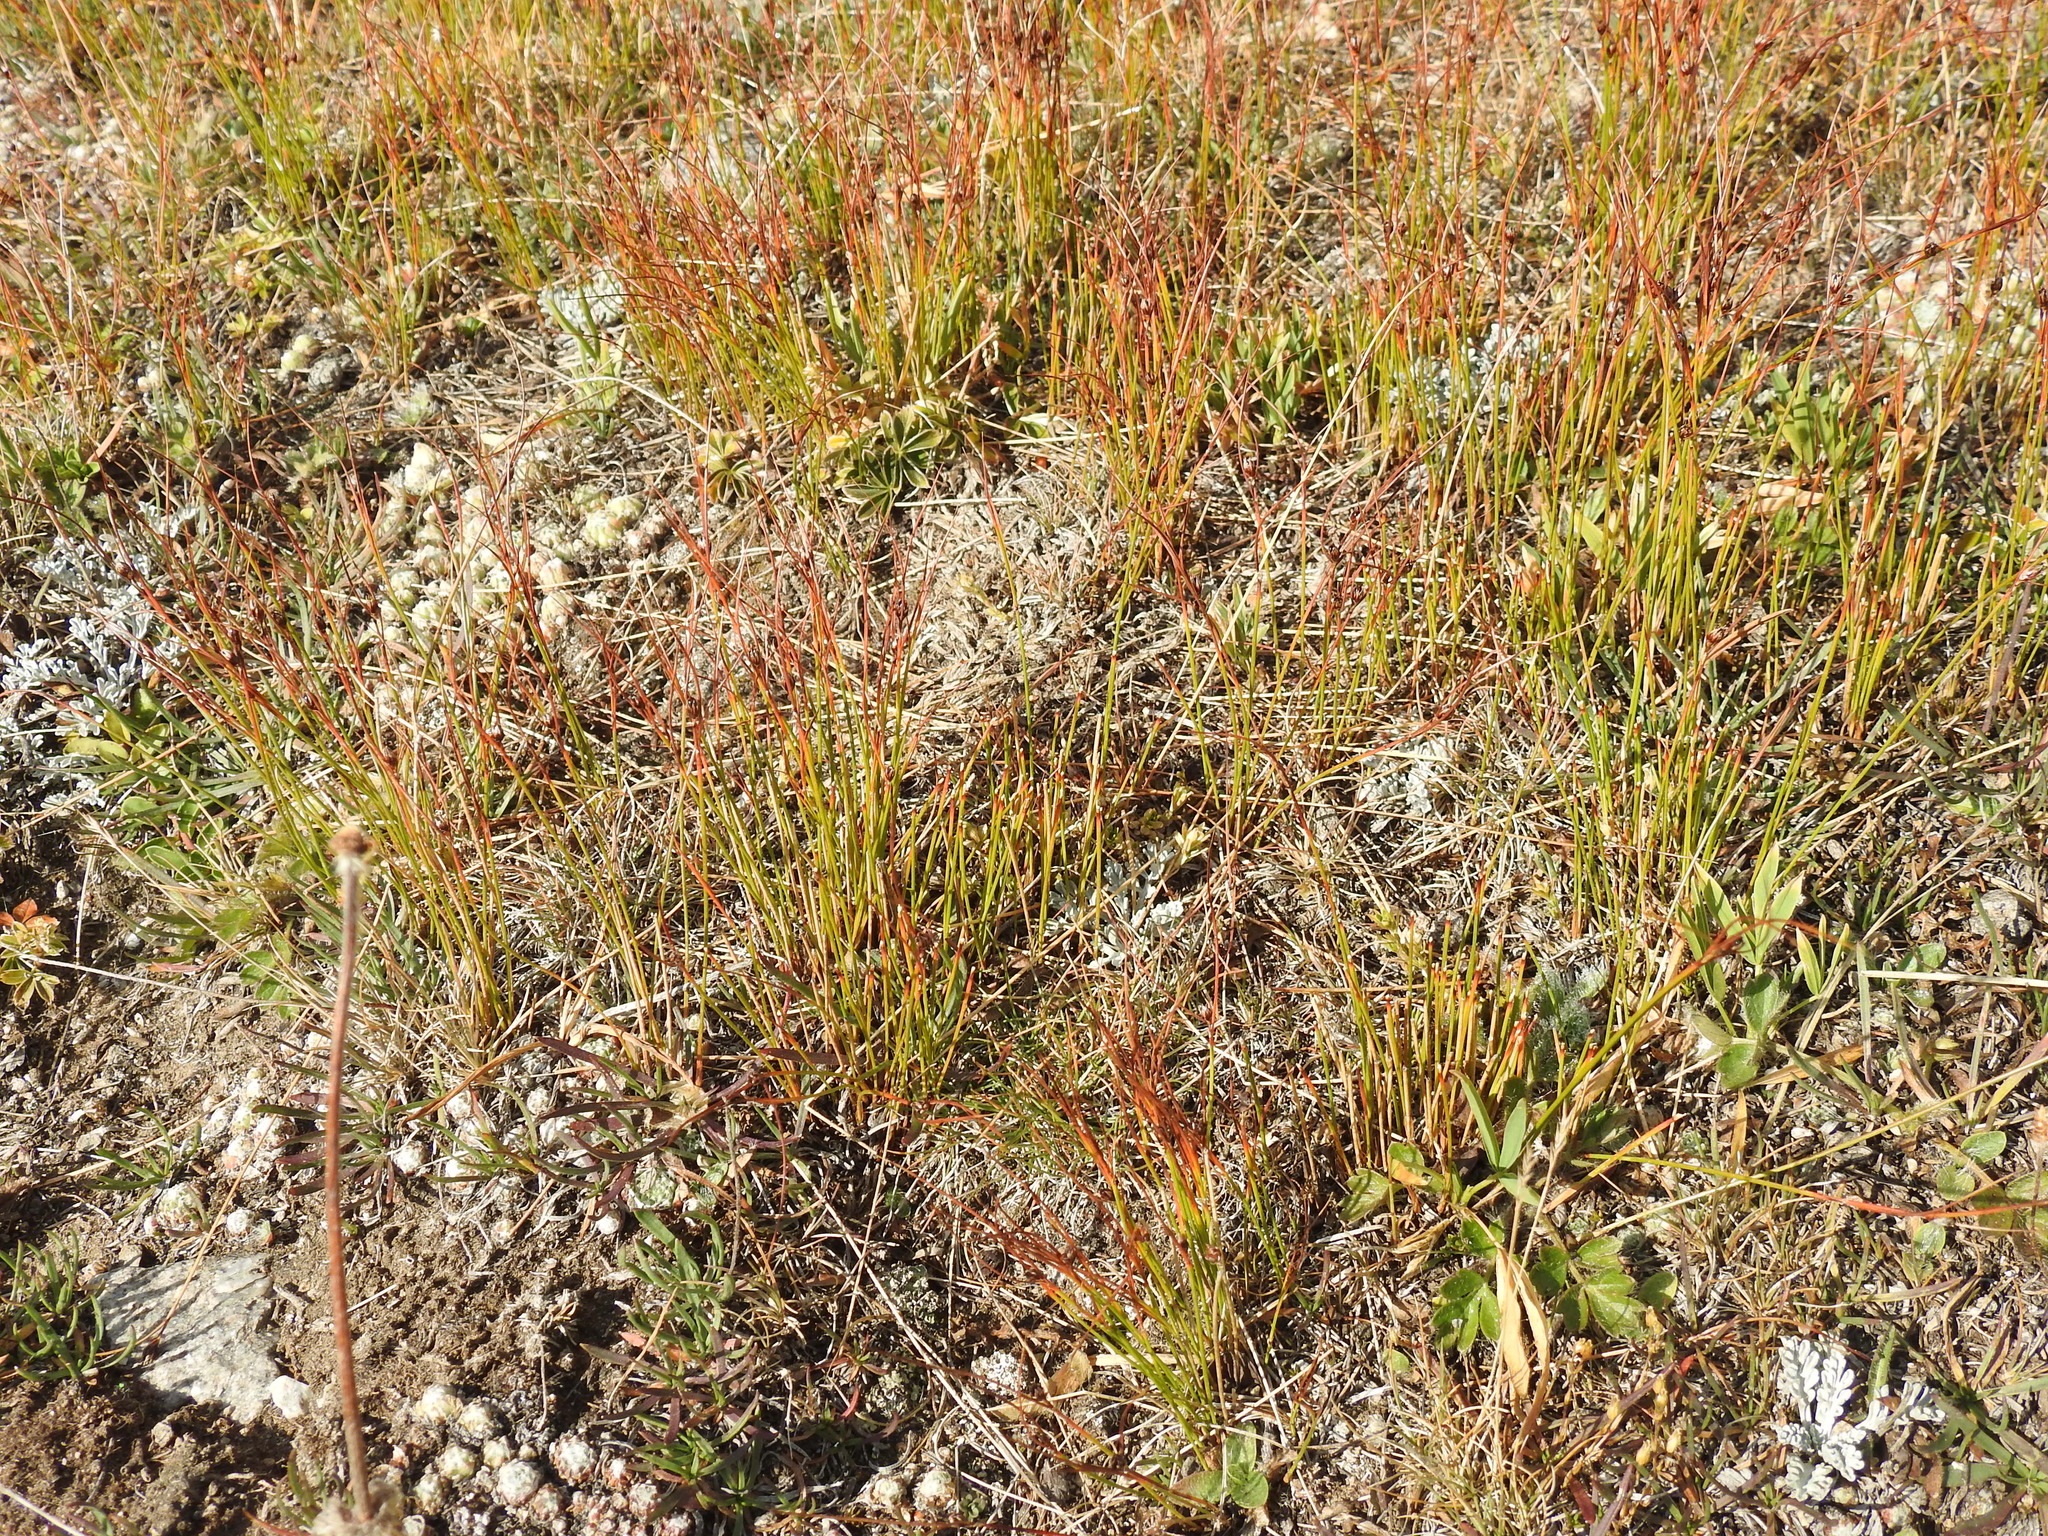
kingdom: Plantae
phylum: Tracheophyta
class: Liliopsida
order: Poales
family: Juncaceae
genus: Oreojuncus
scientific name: Oreojuncus trifidus
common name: Highland rush
